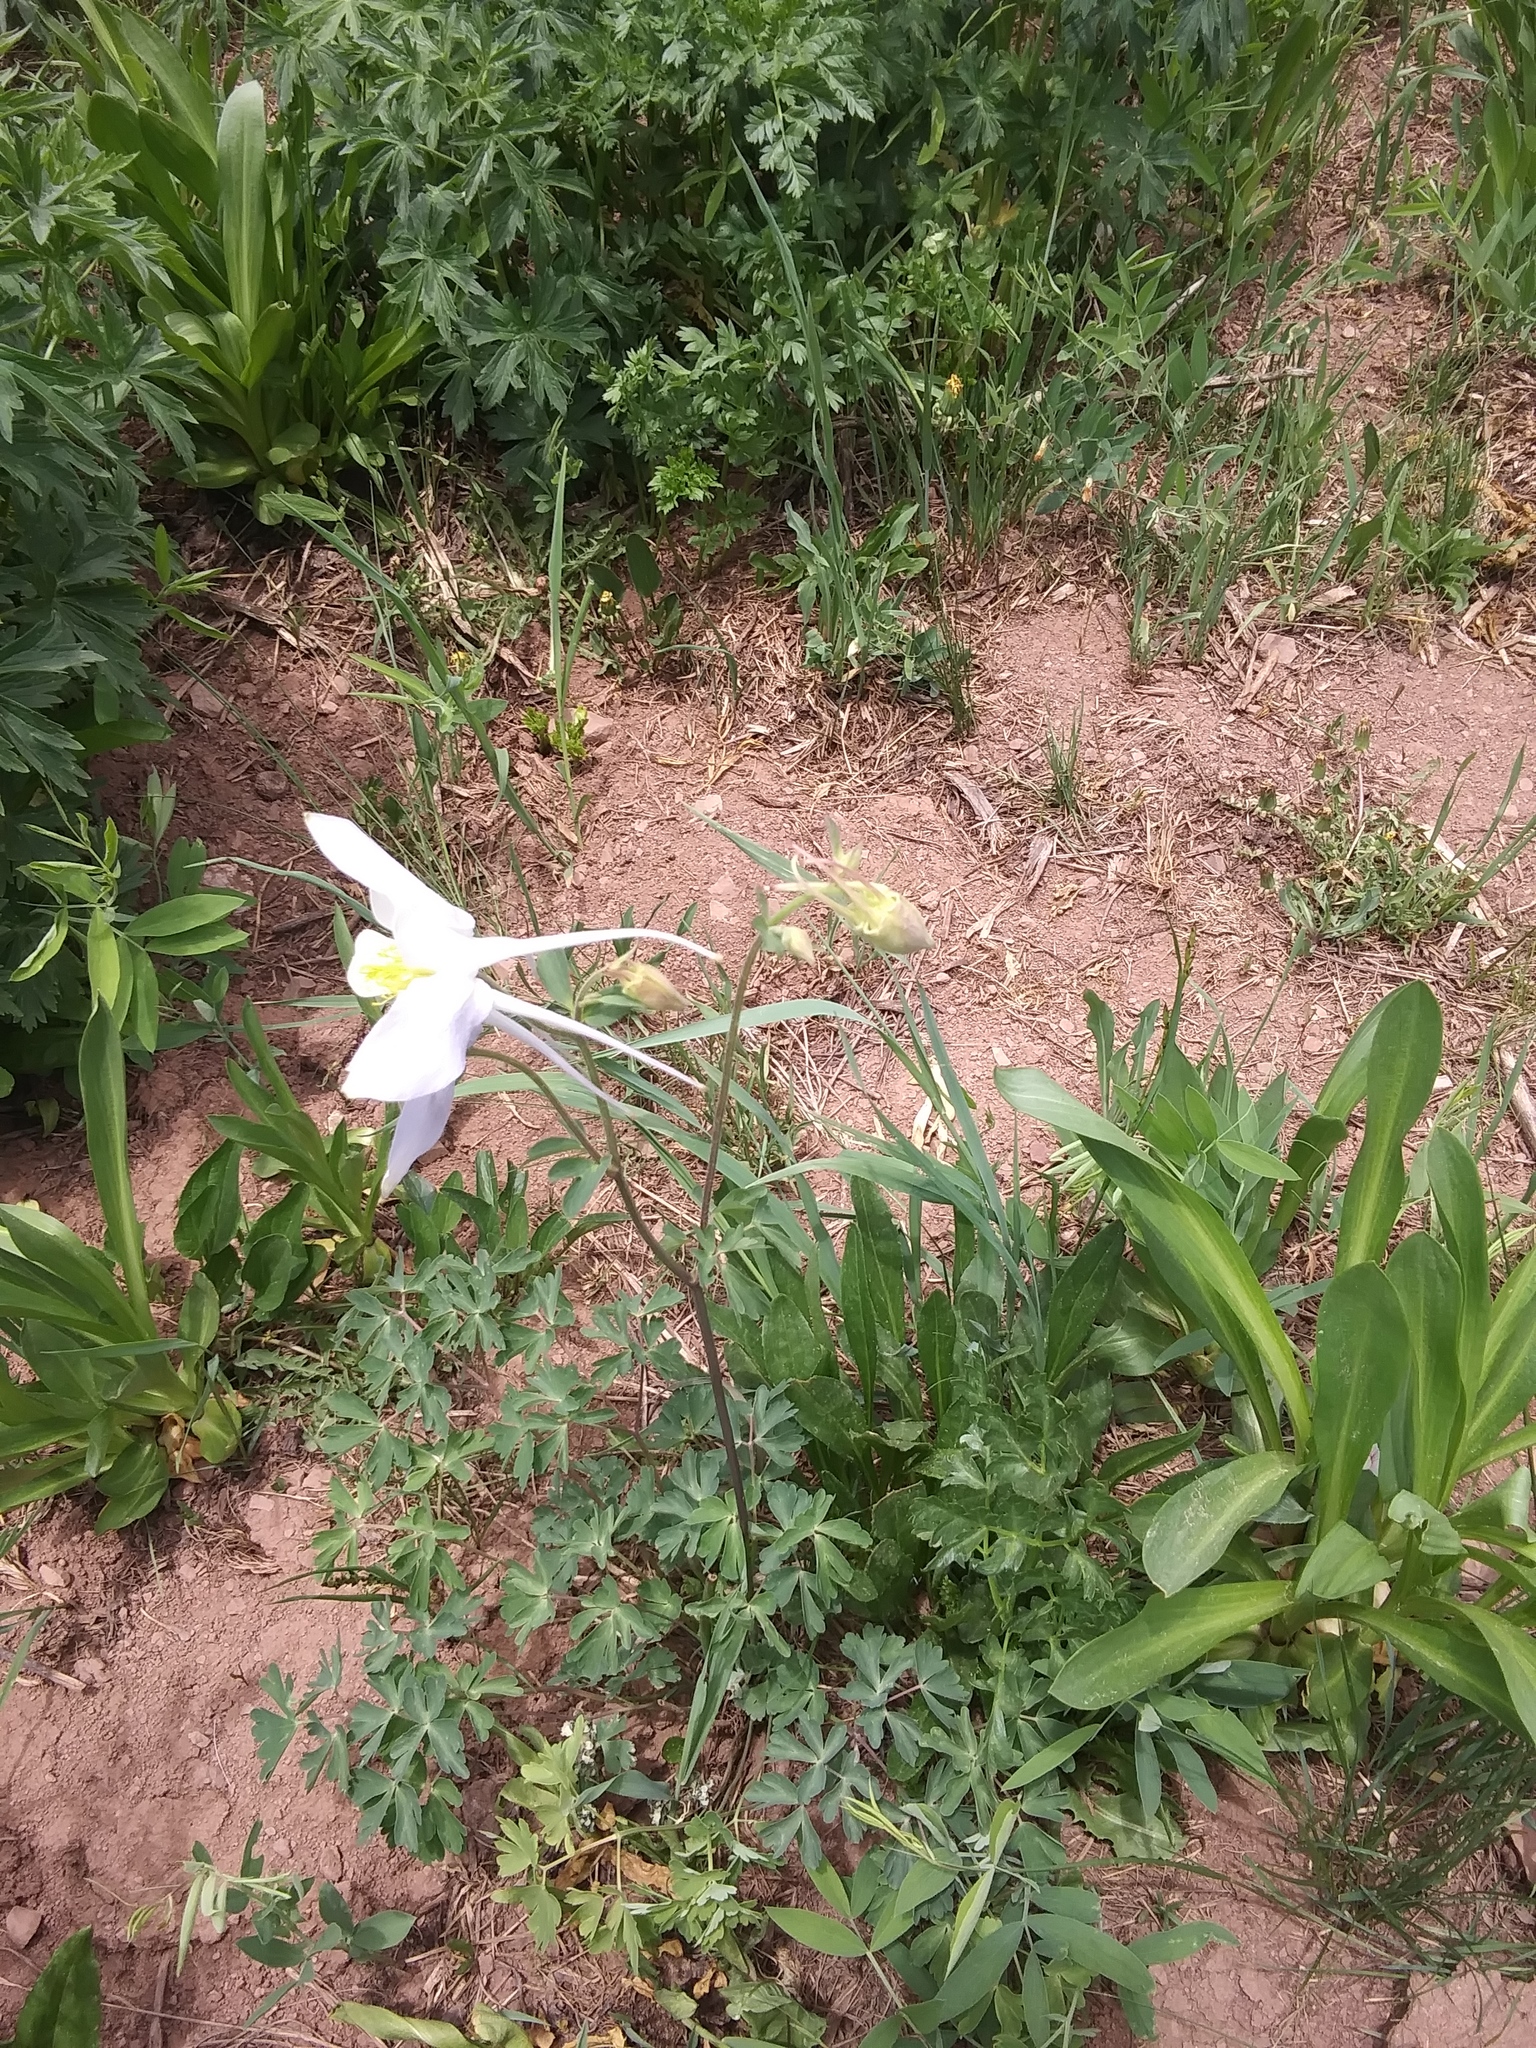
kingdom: Plantae
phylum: Tracheophyta
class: Magnoliopsida
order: Ranunculales
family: Ranunculaceae
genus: Aquilegia
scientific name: Aquilegia coerulea
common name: Rocky mountain columbine
